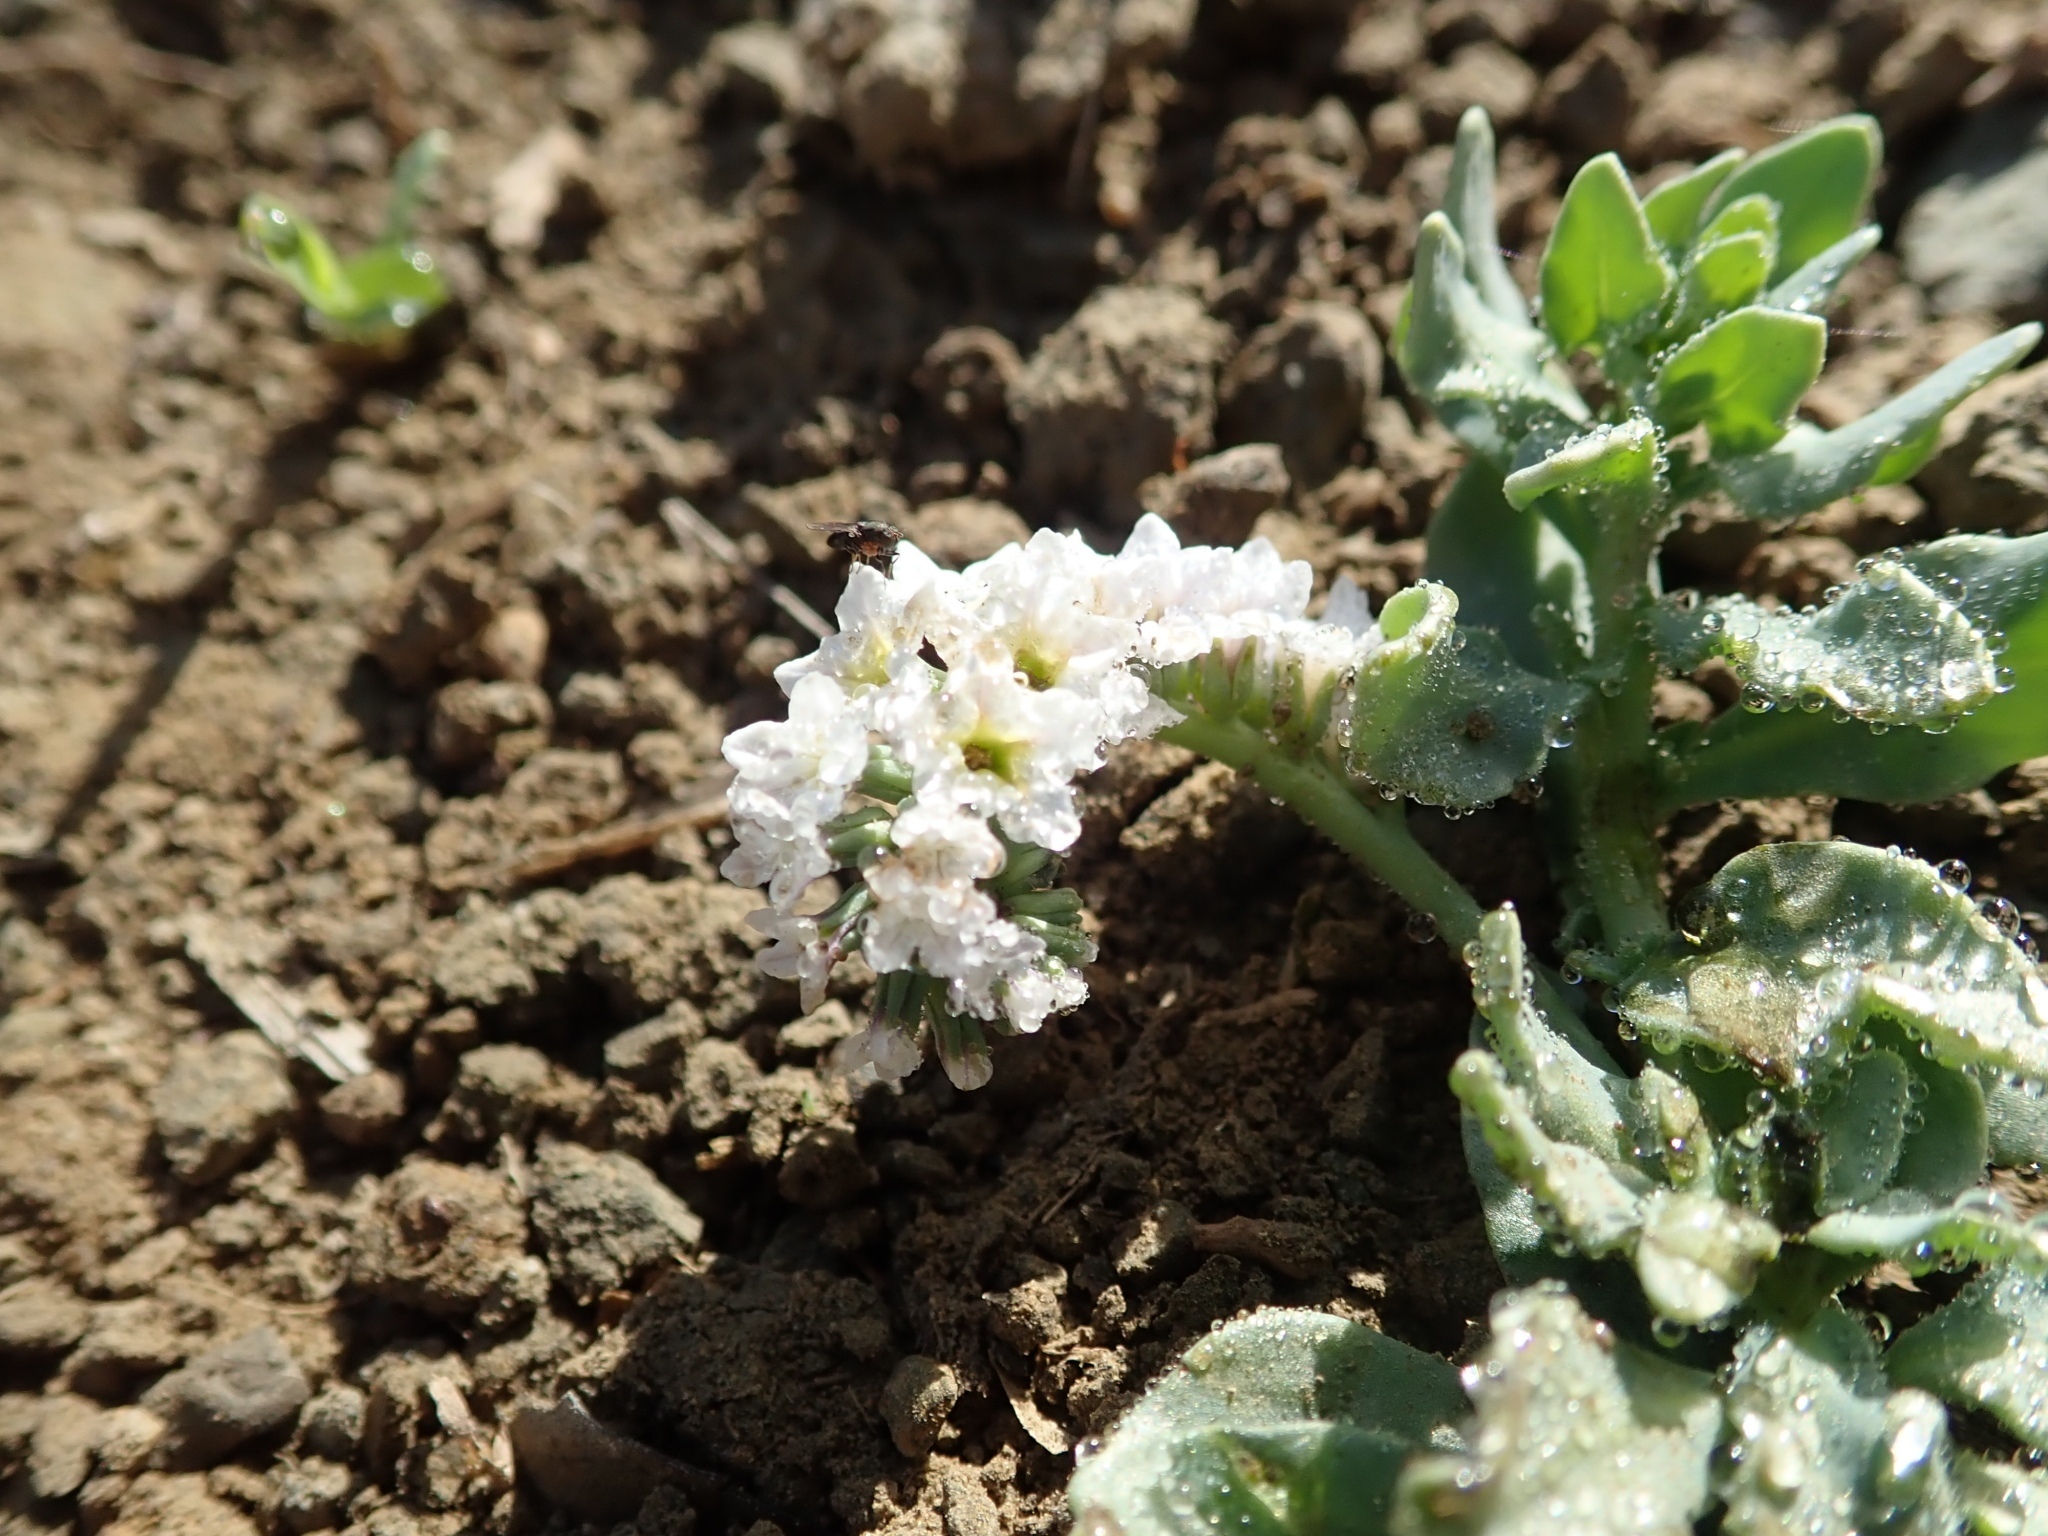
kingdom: Plantae
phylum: Tracheophyta
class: Magnoliopsida
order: Boraginales
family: Heliotropiaceae
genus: Heliotropium
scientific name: Heliotropium curassavicum
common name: Seaside heliotrope
